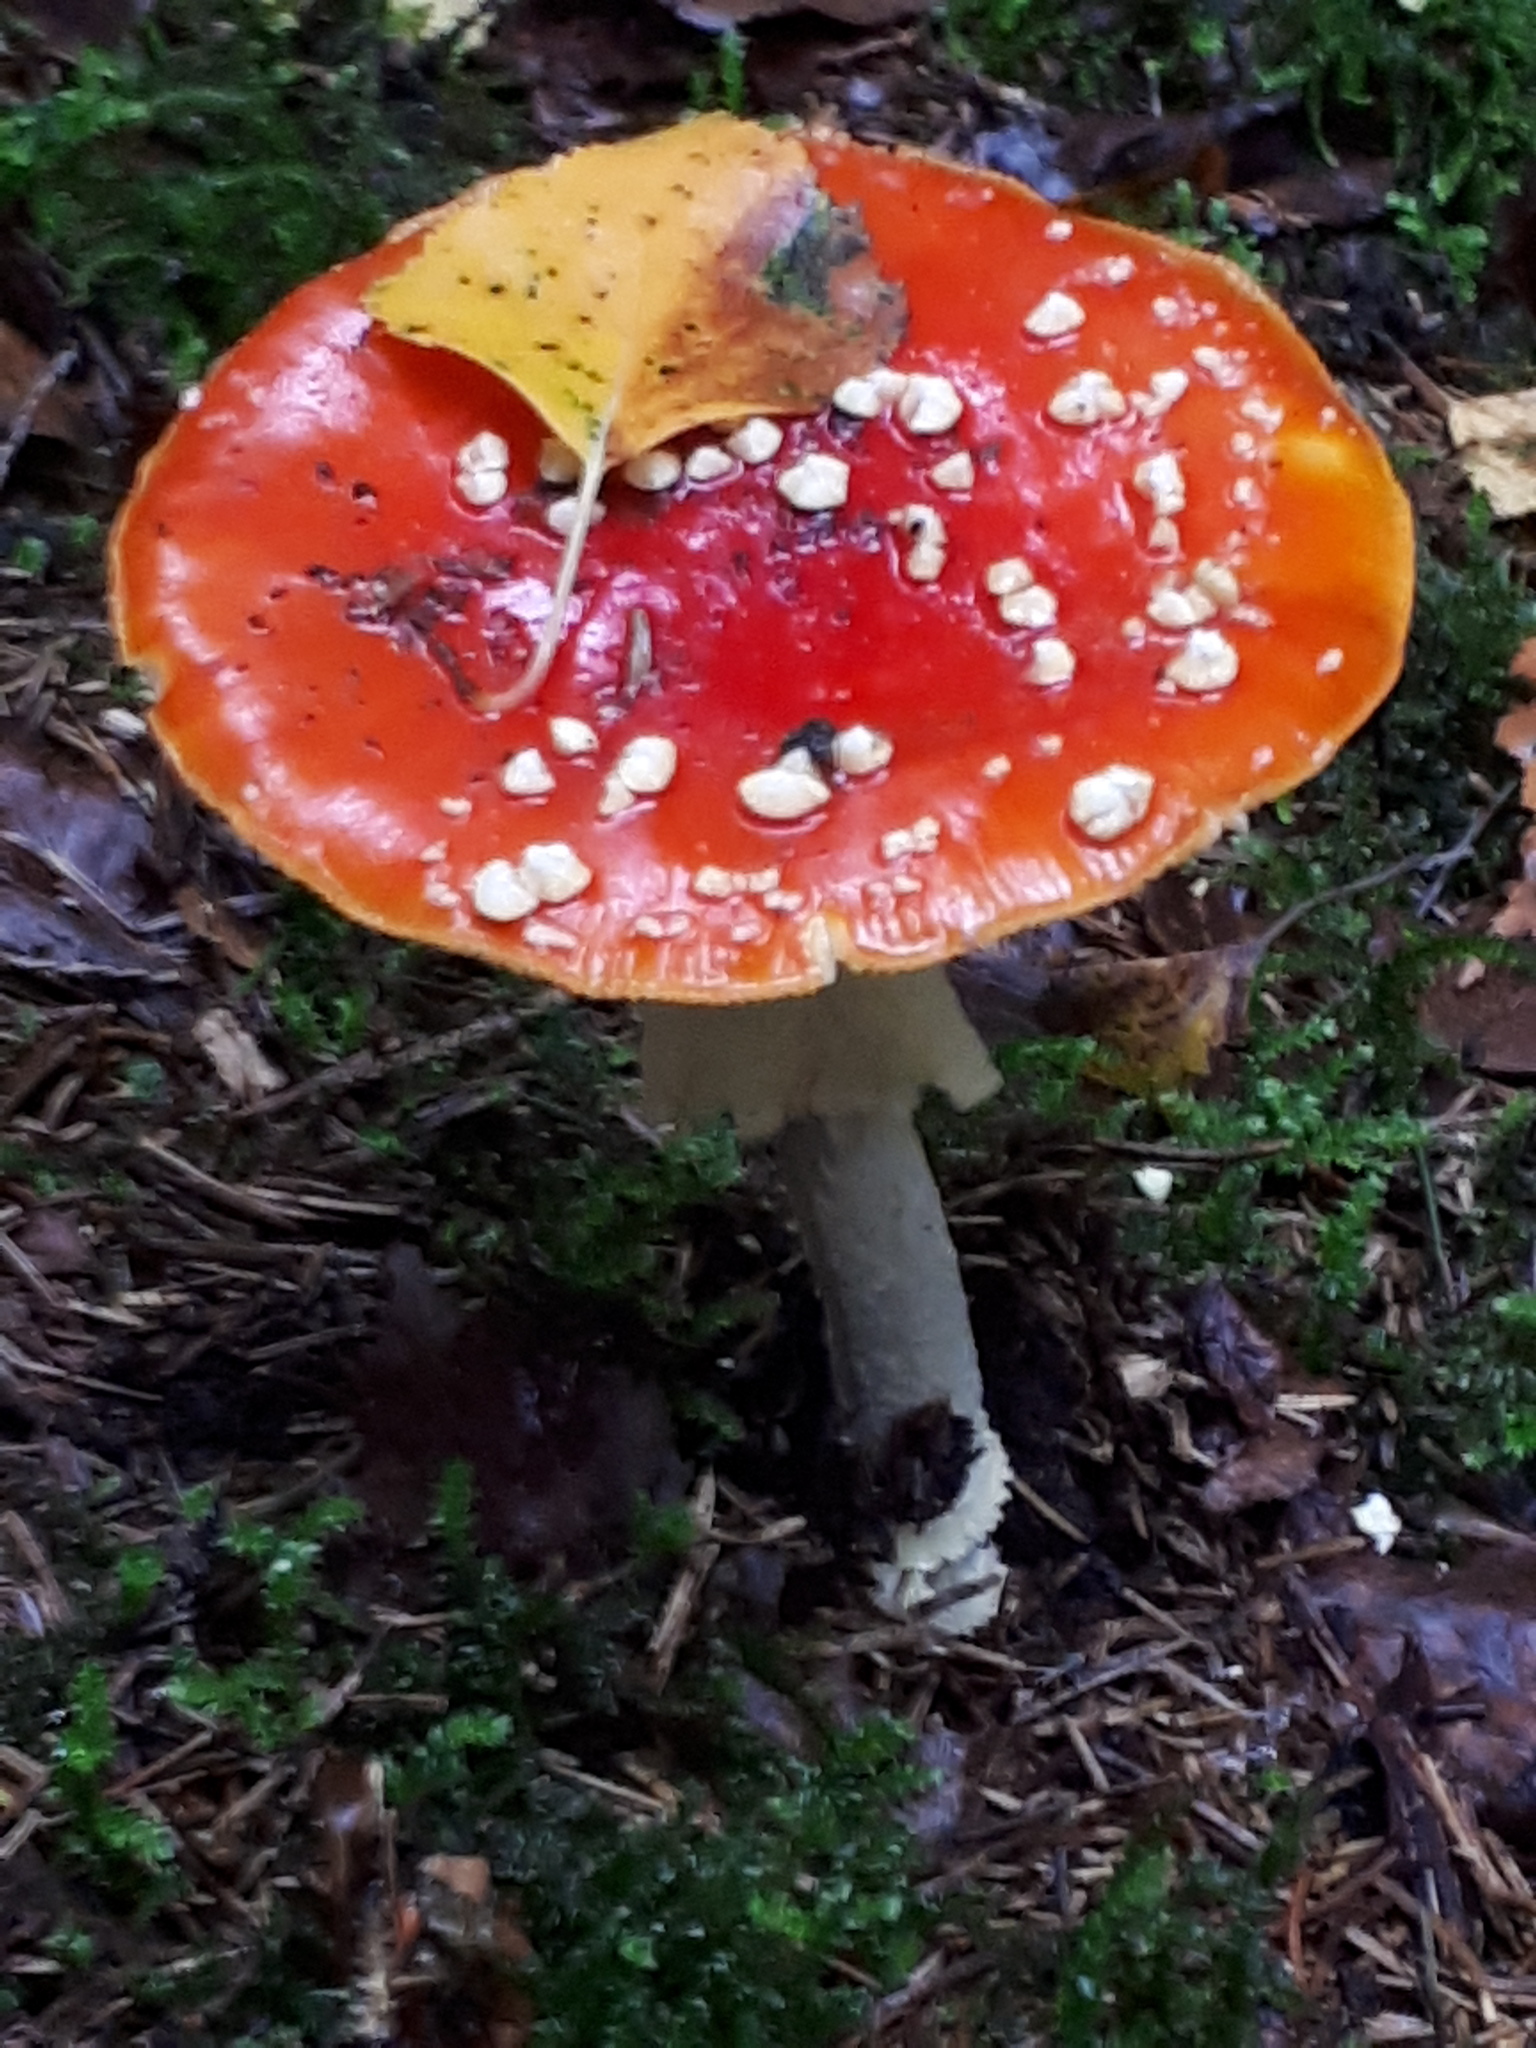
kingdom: Fungi
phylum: Basidiomycota
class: Agaricomycetes
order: Agaricales
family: Amanitaceae
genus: Amanita
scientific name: Amanita muscaria
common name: Fly agaric
